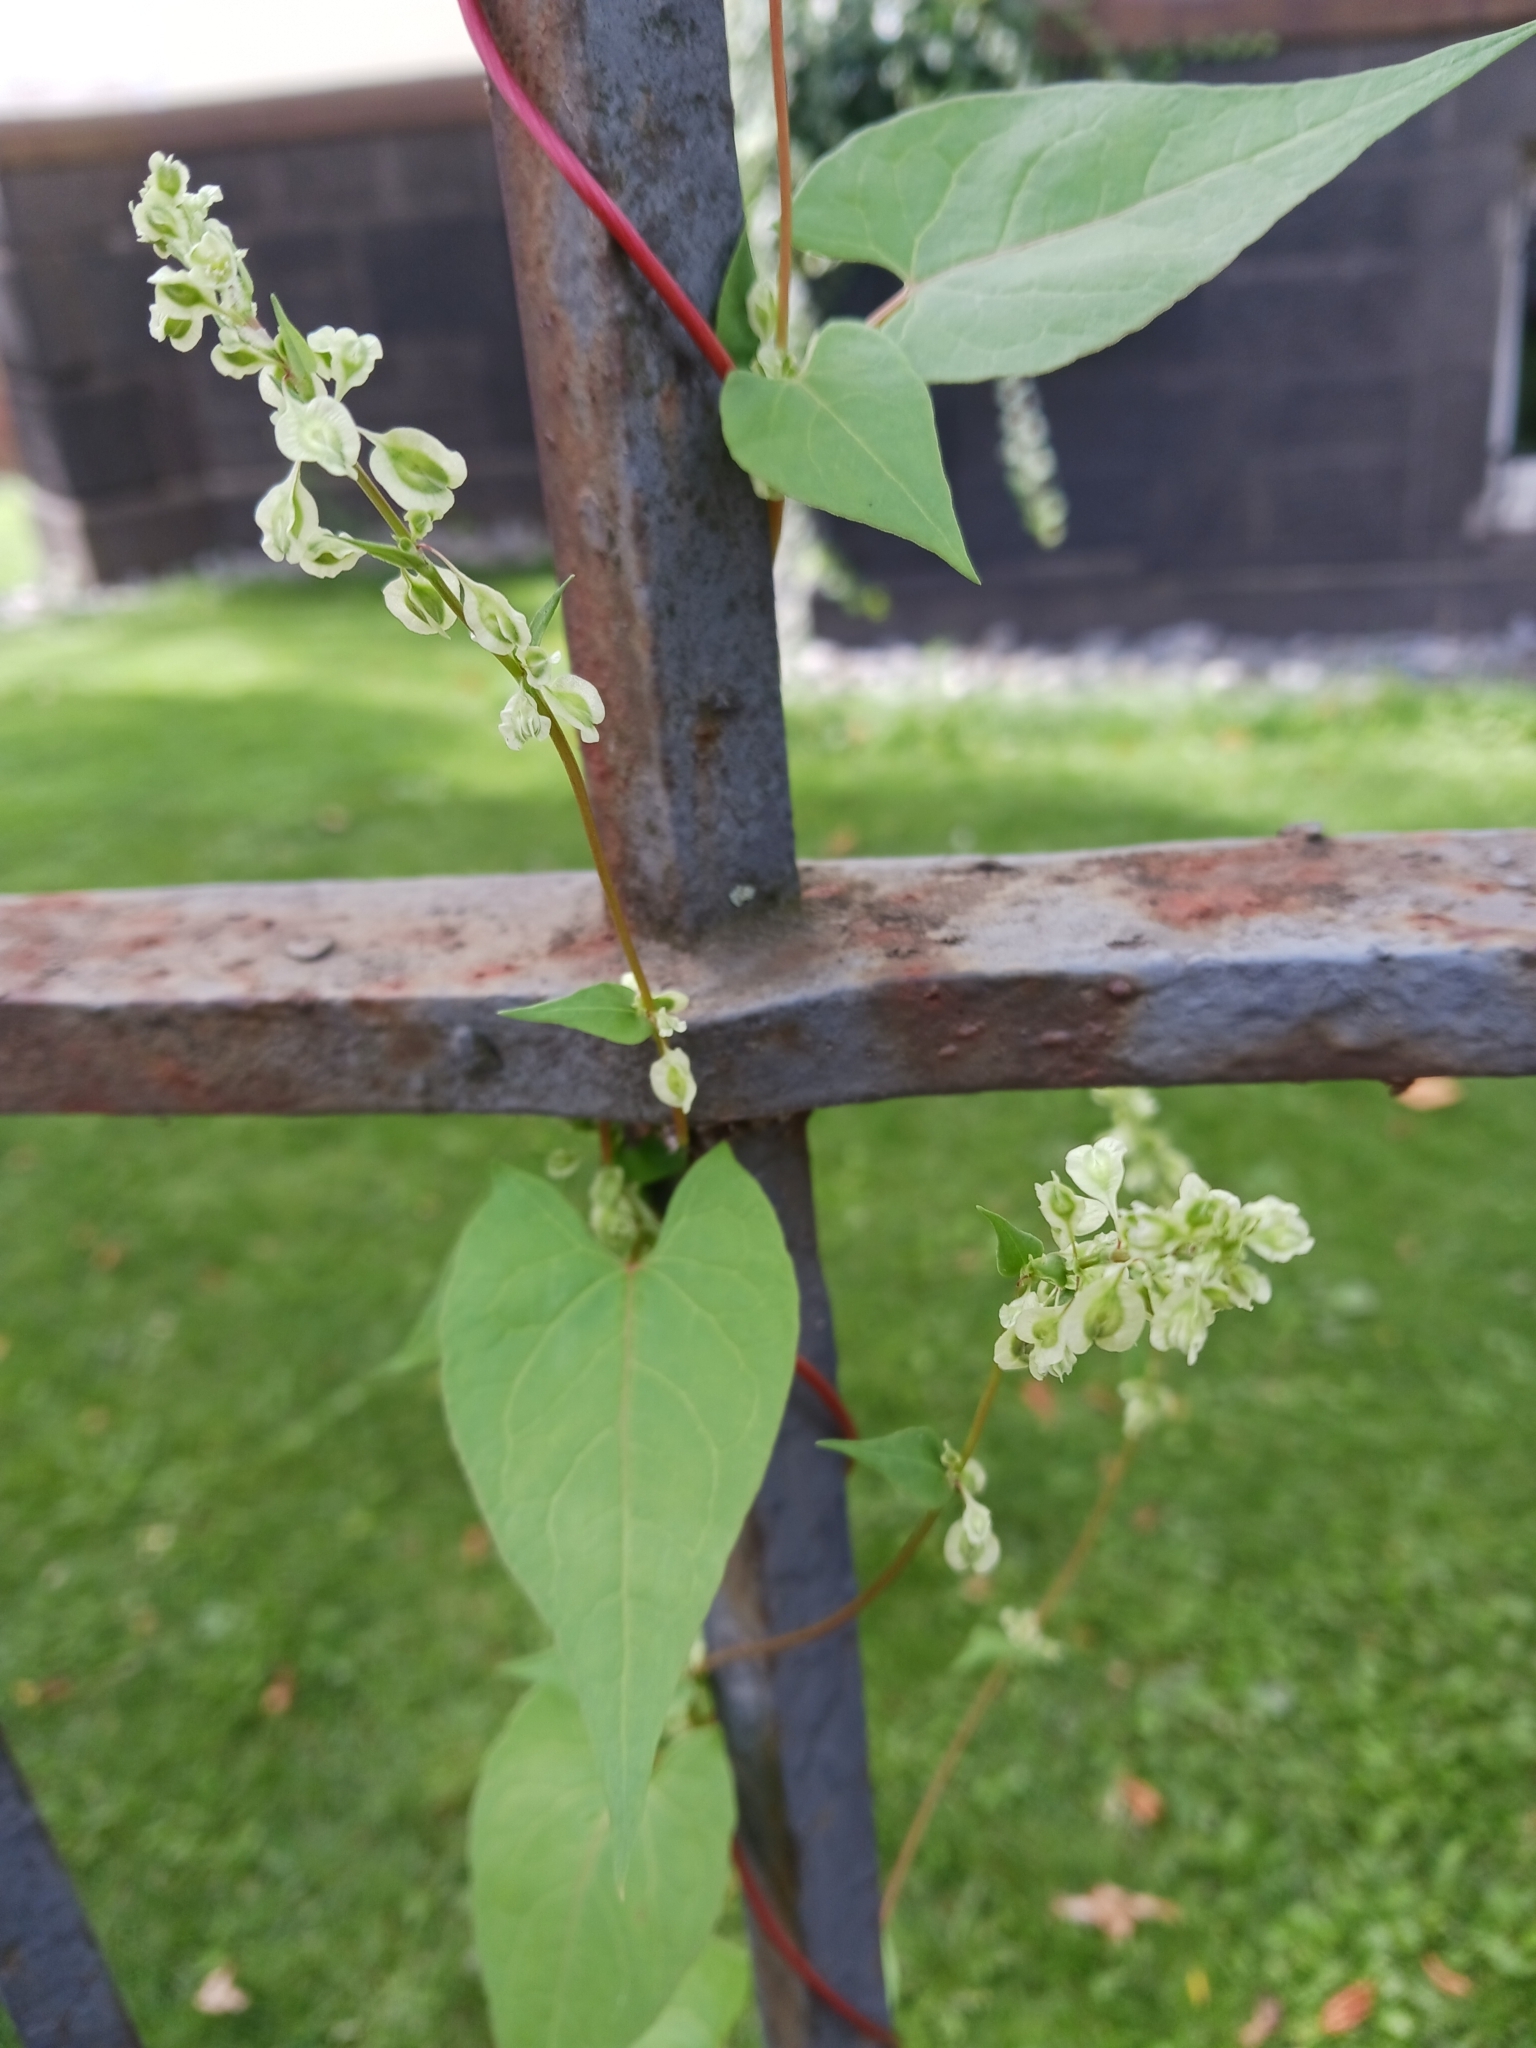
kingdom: Plantae
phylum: Tracheophyta
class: Magnoliopsida
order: Caryophyllales
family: Polygonaceae
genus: Fallopia
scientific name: Fallopia dumetorum
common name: Copse-bindweed
